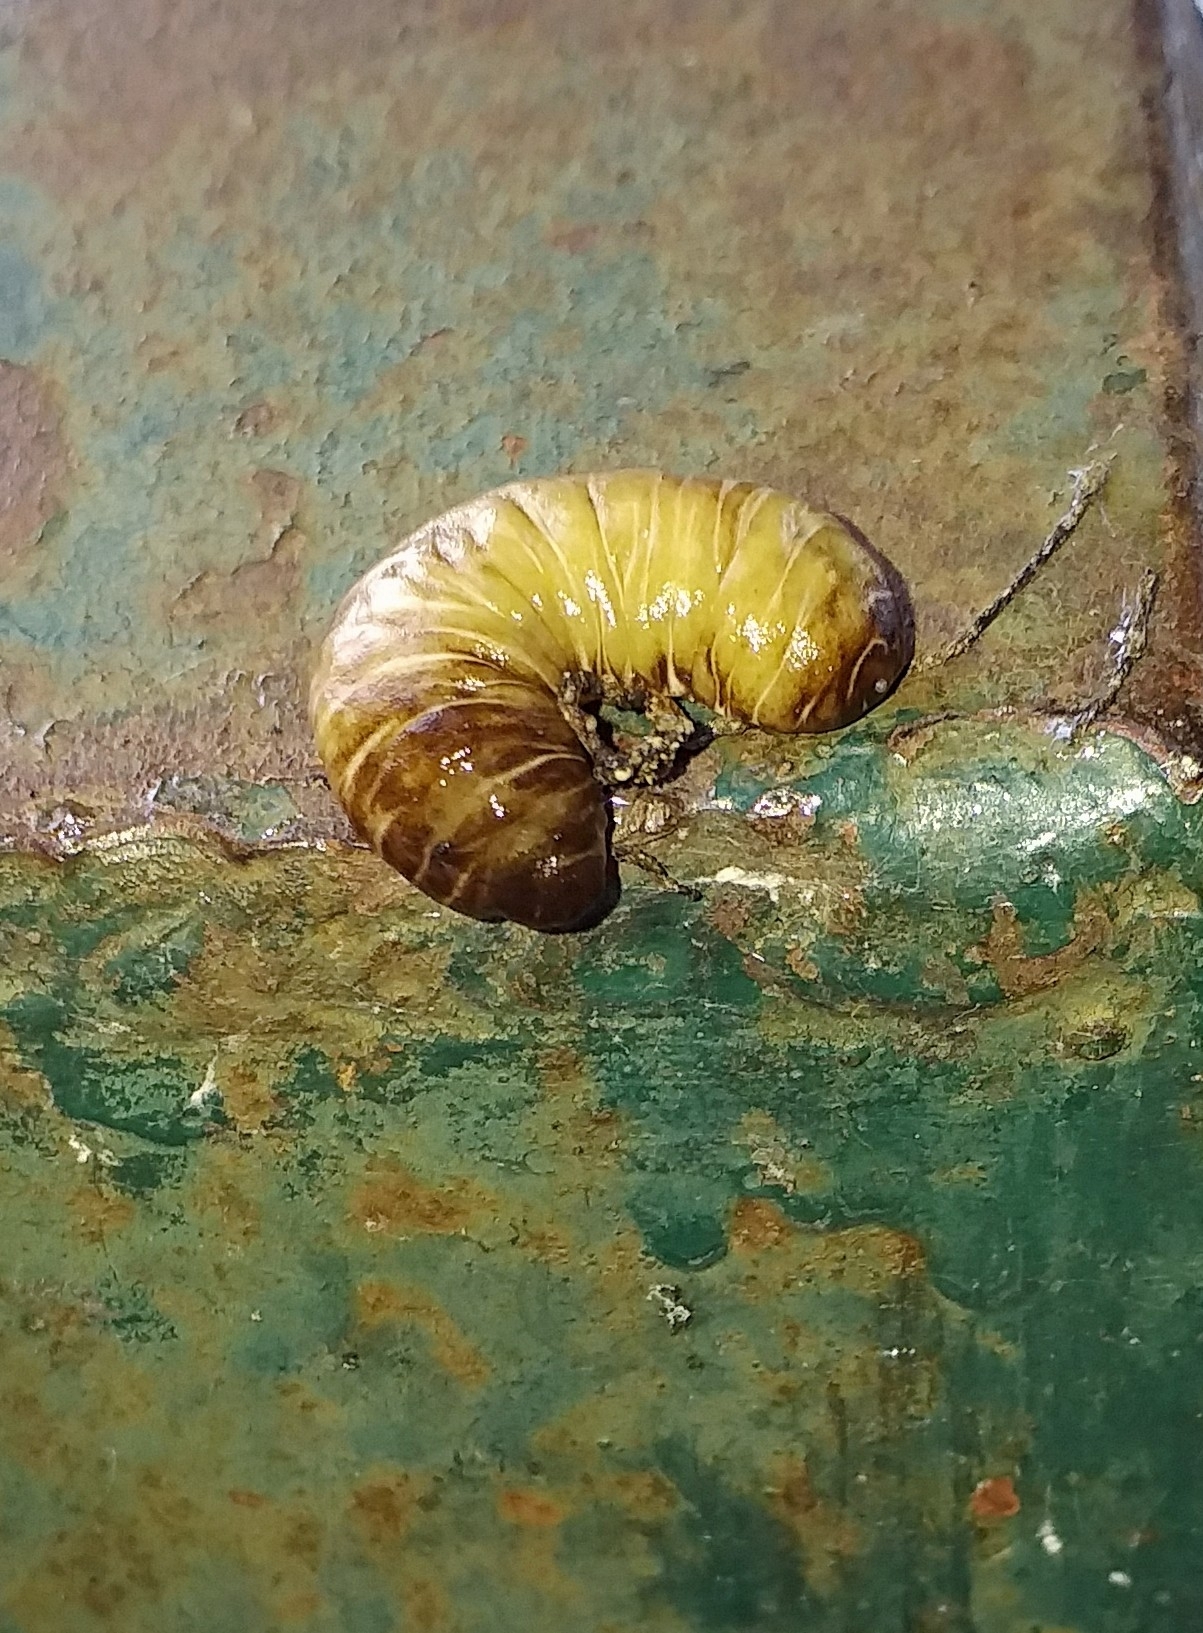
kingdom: Animalia
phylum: Mollusca
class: Gastropoda
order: Systellommatophora
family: Veronicellidae
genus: Laevicaulis
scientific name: Laevicaulis haroldi
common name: Caterpillar slug
